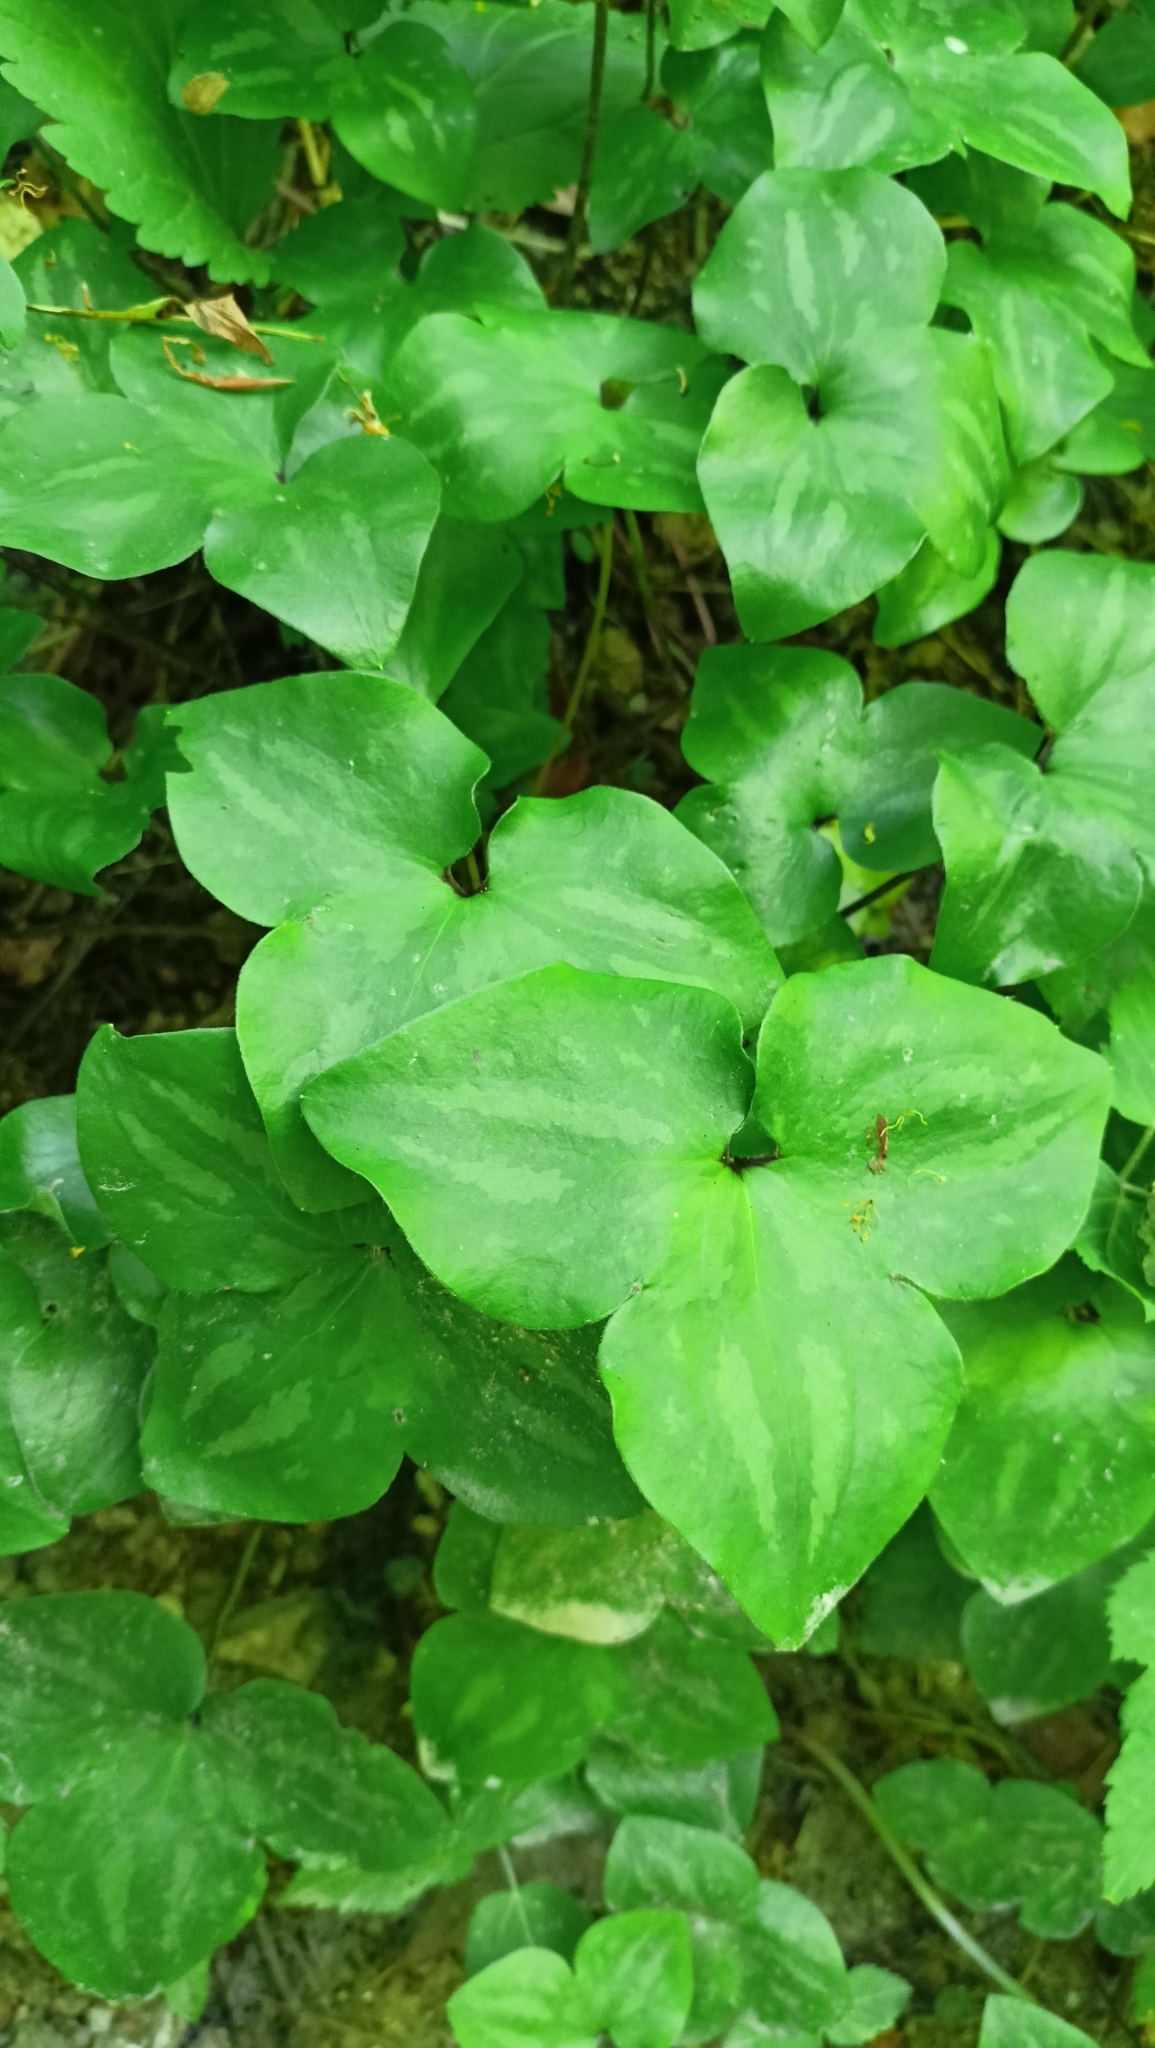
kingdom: Plantae
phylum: Tracheophyta
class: Magnoliopsida
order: Ranunculales
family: Ranunculaceae
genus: Hepatica
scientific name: Hepatica nobilis
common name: Liverleaf
